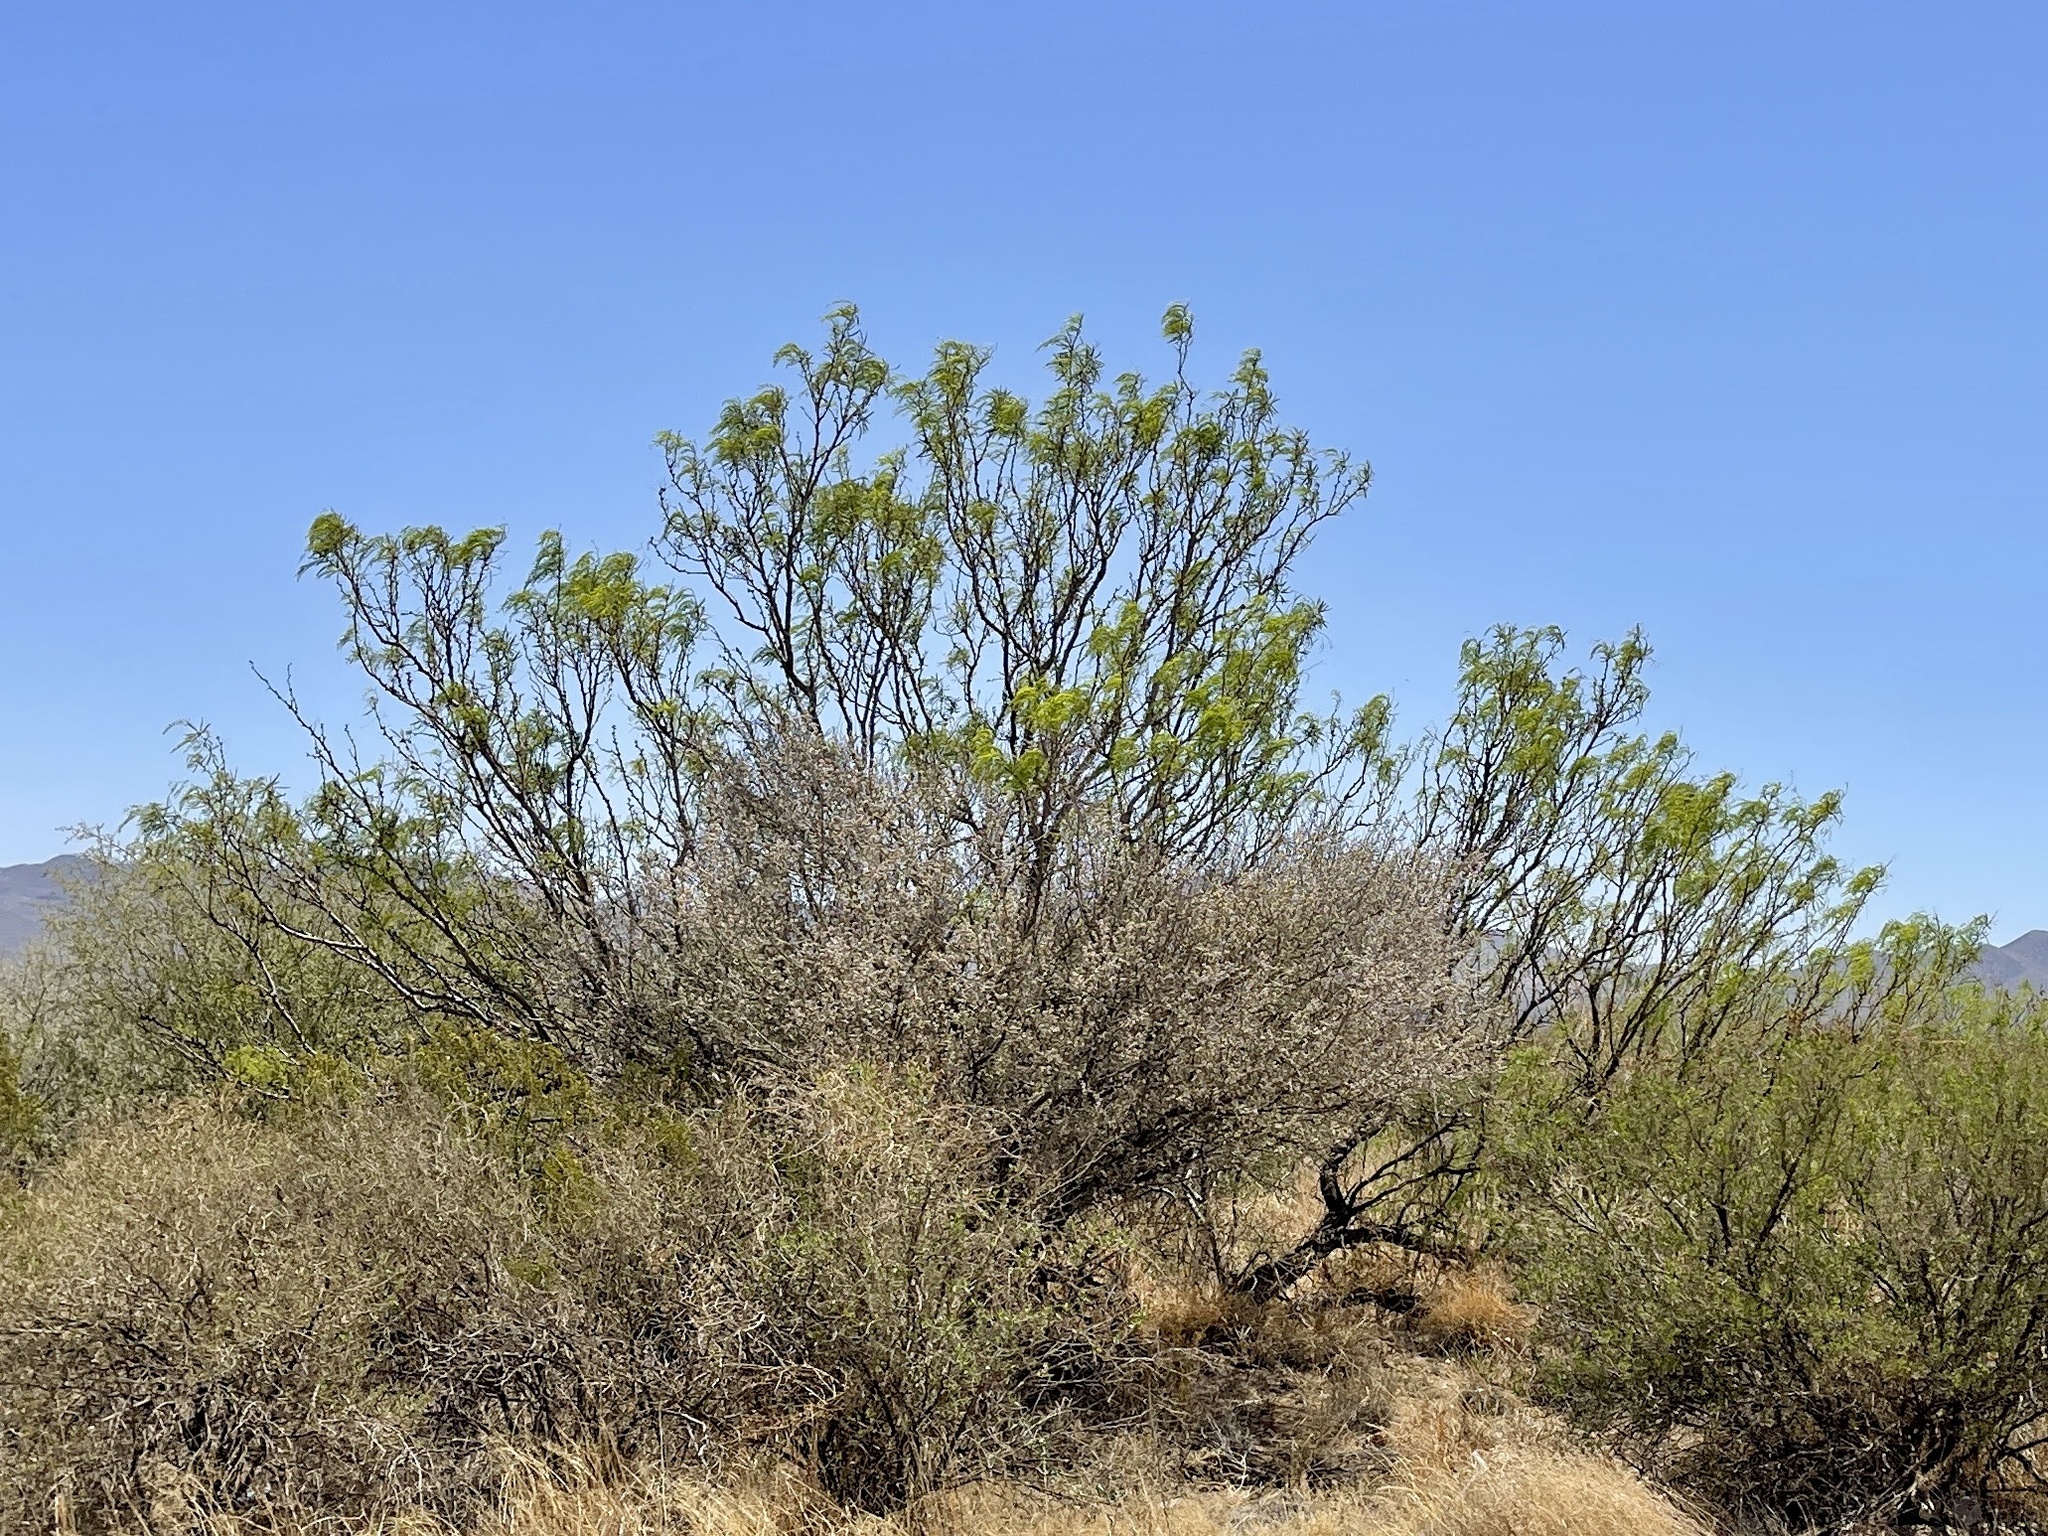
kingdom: Plantae
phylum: Tracheophyta
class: Magnoliopsida
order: Zygophyllales
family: Zygophyllaceae
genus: Larrea
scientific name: Larrea tridentata
